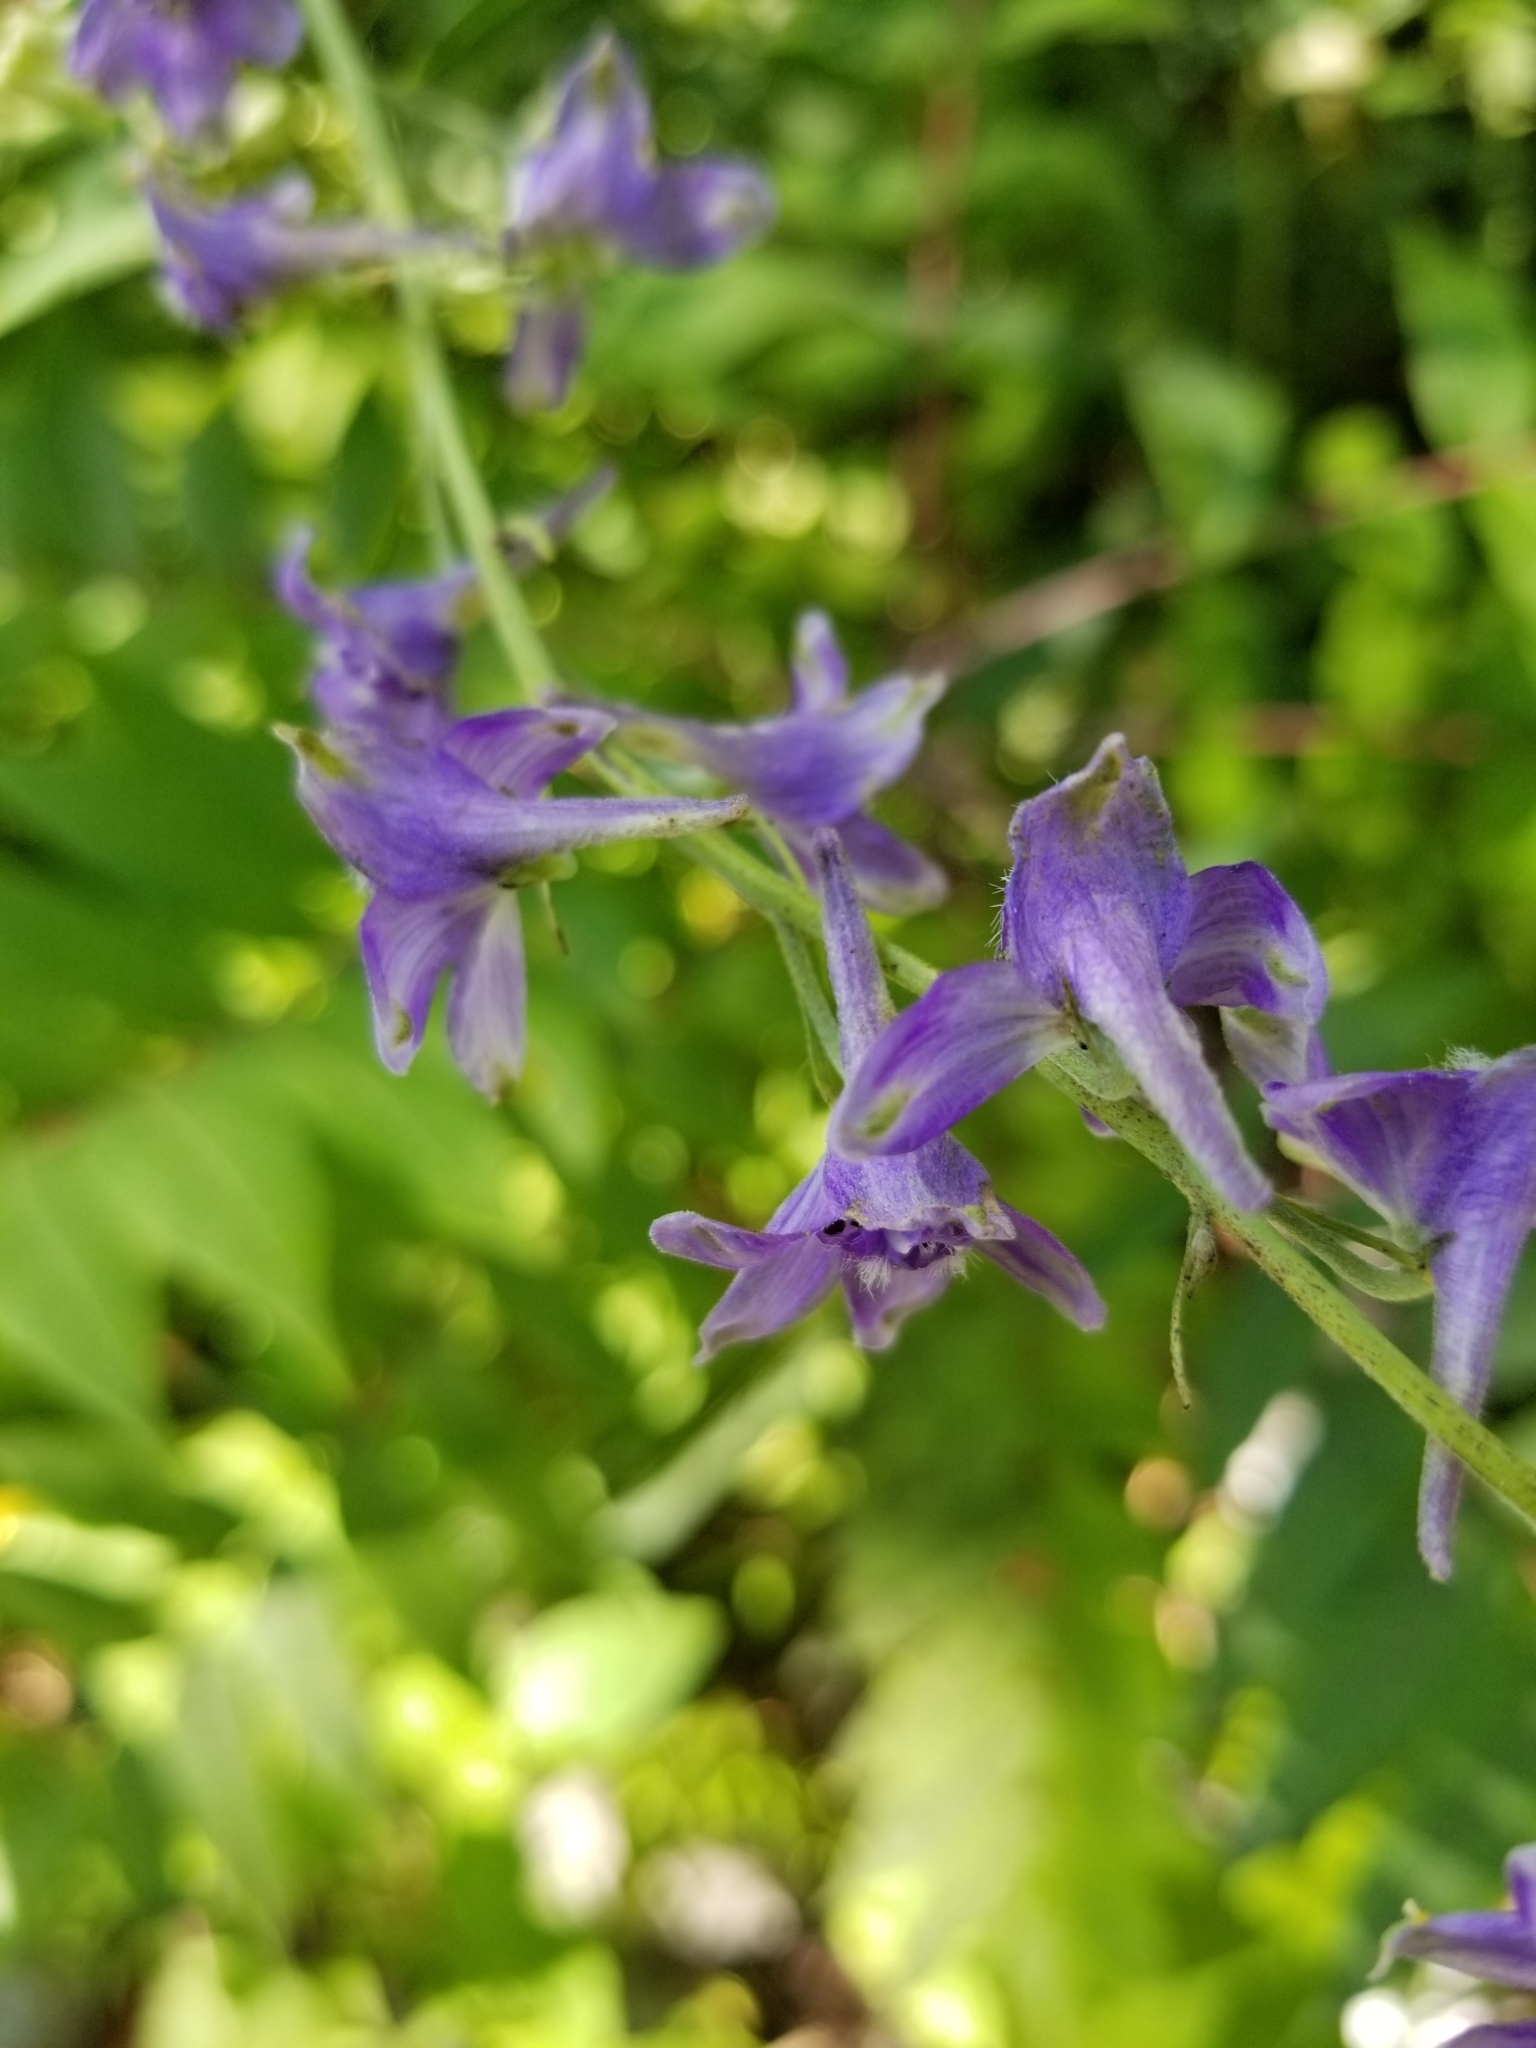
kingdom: Plantae
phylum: Tracheophyta
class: Magnoliopsida
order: Ranunculales
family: Ranunculaceae
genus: Delphinium
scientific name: Delphinium exaltatum
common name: Tall larkspur
